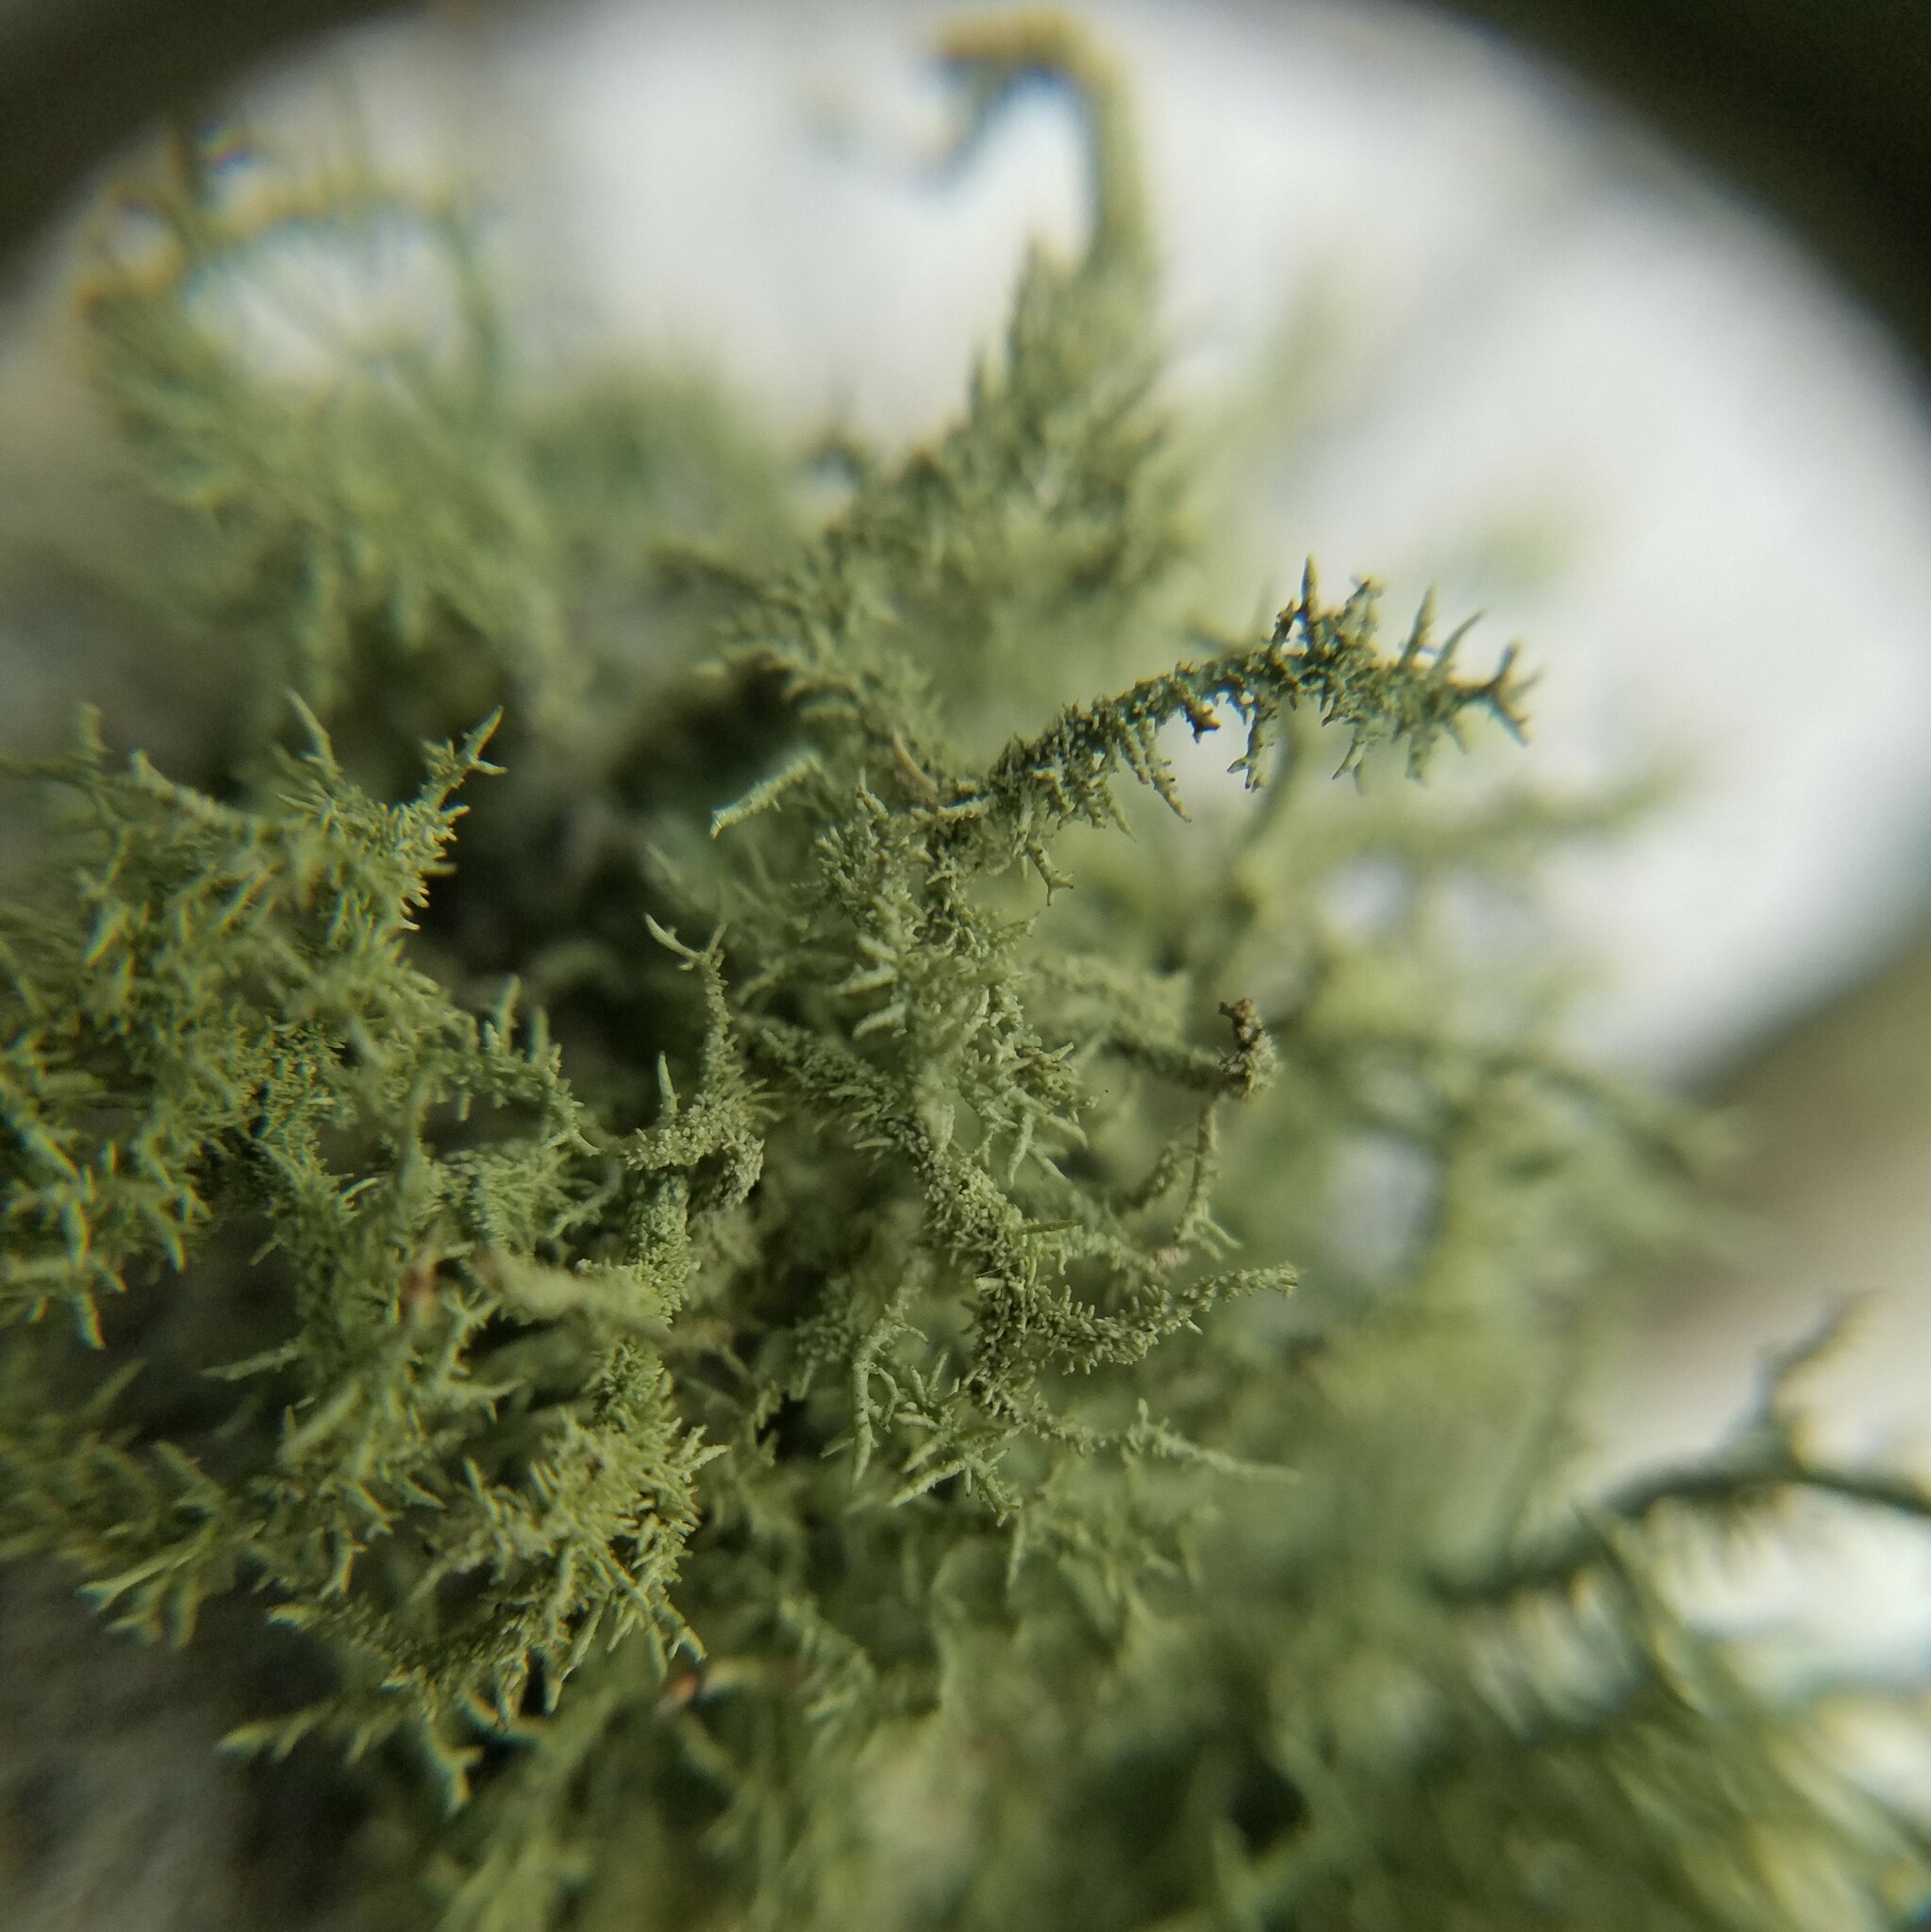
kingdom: Fungi
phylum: Ascomycota
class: Lecanoromycetes
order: Lecanorales
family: Parmeliaceae
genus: Usnea
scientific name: Usnea amblyoclada
